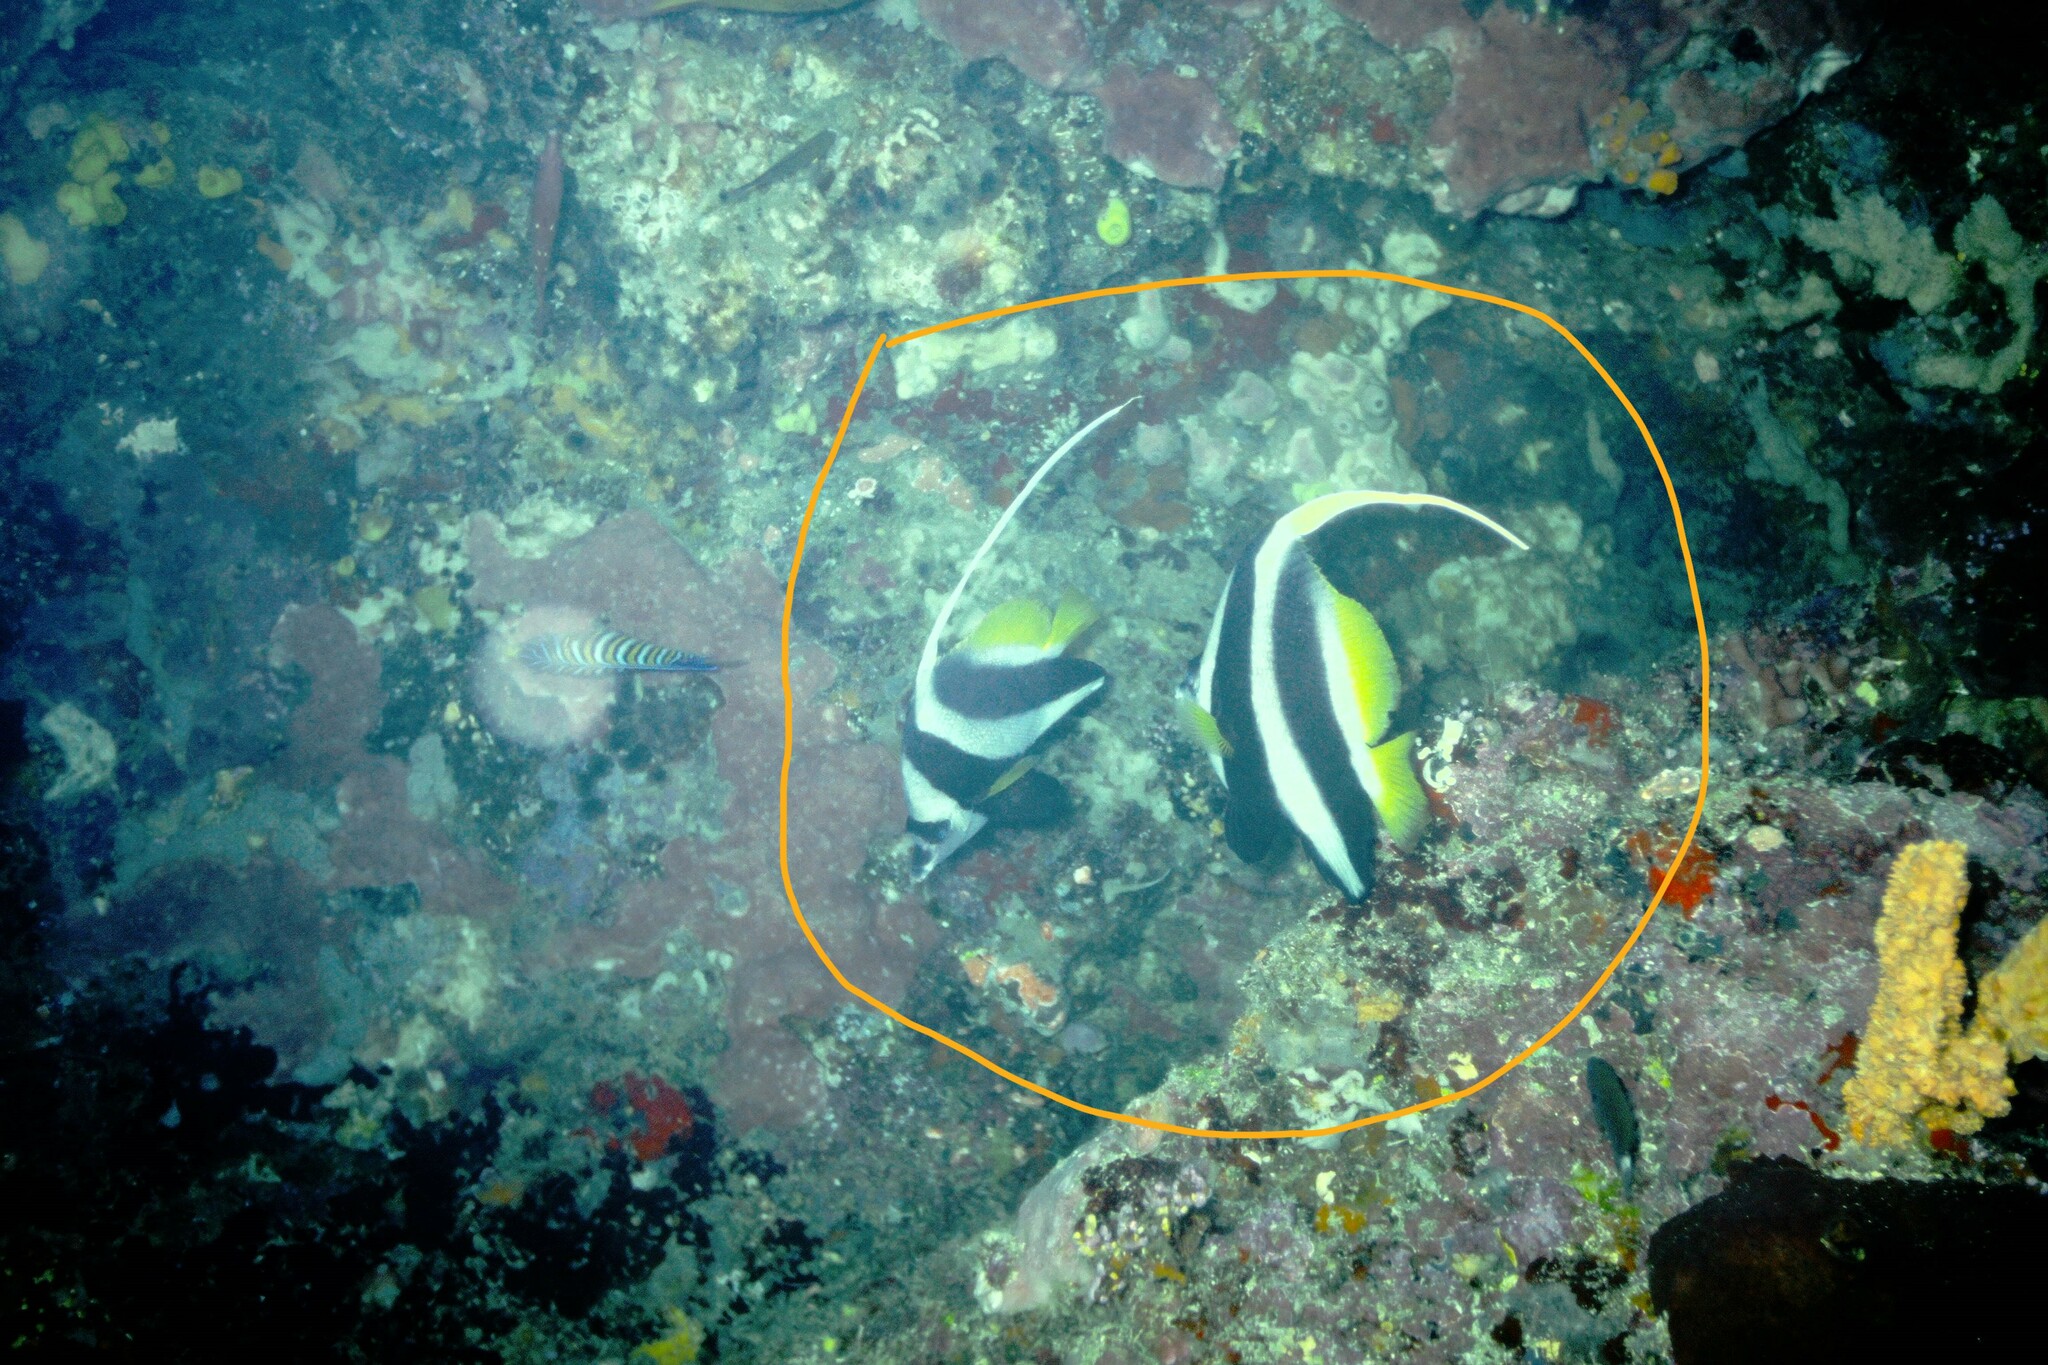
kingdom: Animalia
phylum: Chordata
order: Perciformes
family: Chaetodontidae
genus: Heniochus
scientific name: Heniochus acuminatus
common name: Pennant coralfish
